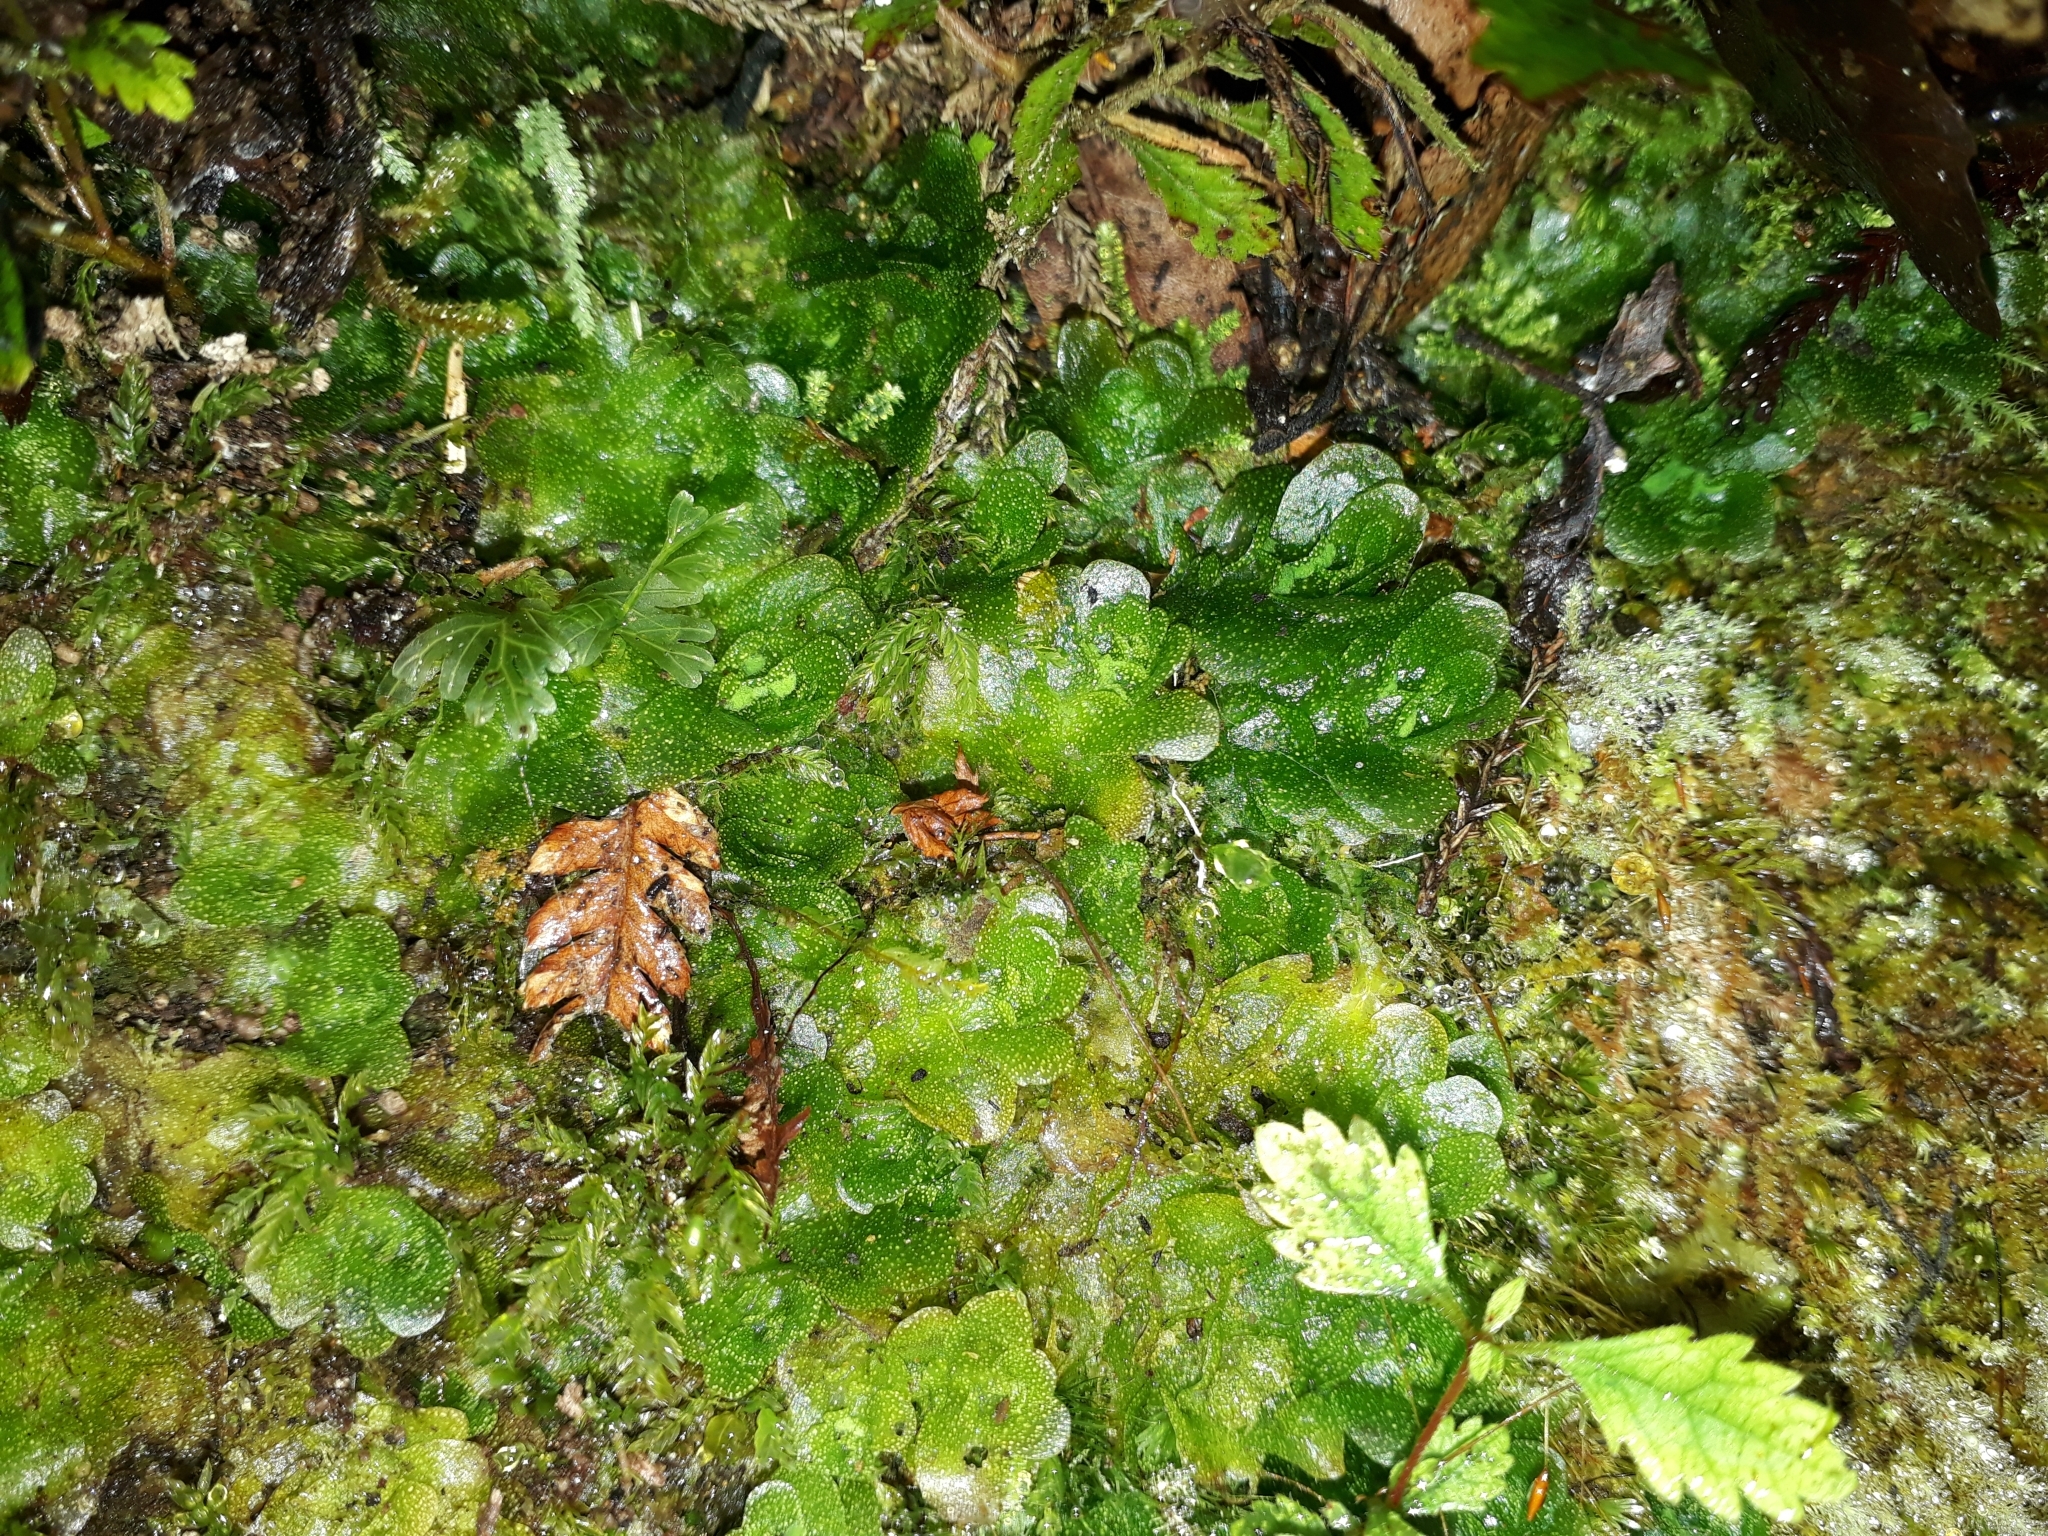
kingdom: Plantae
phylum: Marchantiophyta
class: Haplomitriopsida
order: Treubiales
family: Treubiaceae
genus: Treubia
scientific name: Treubia lacunosa
